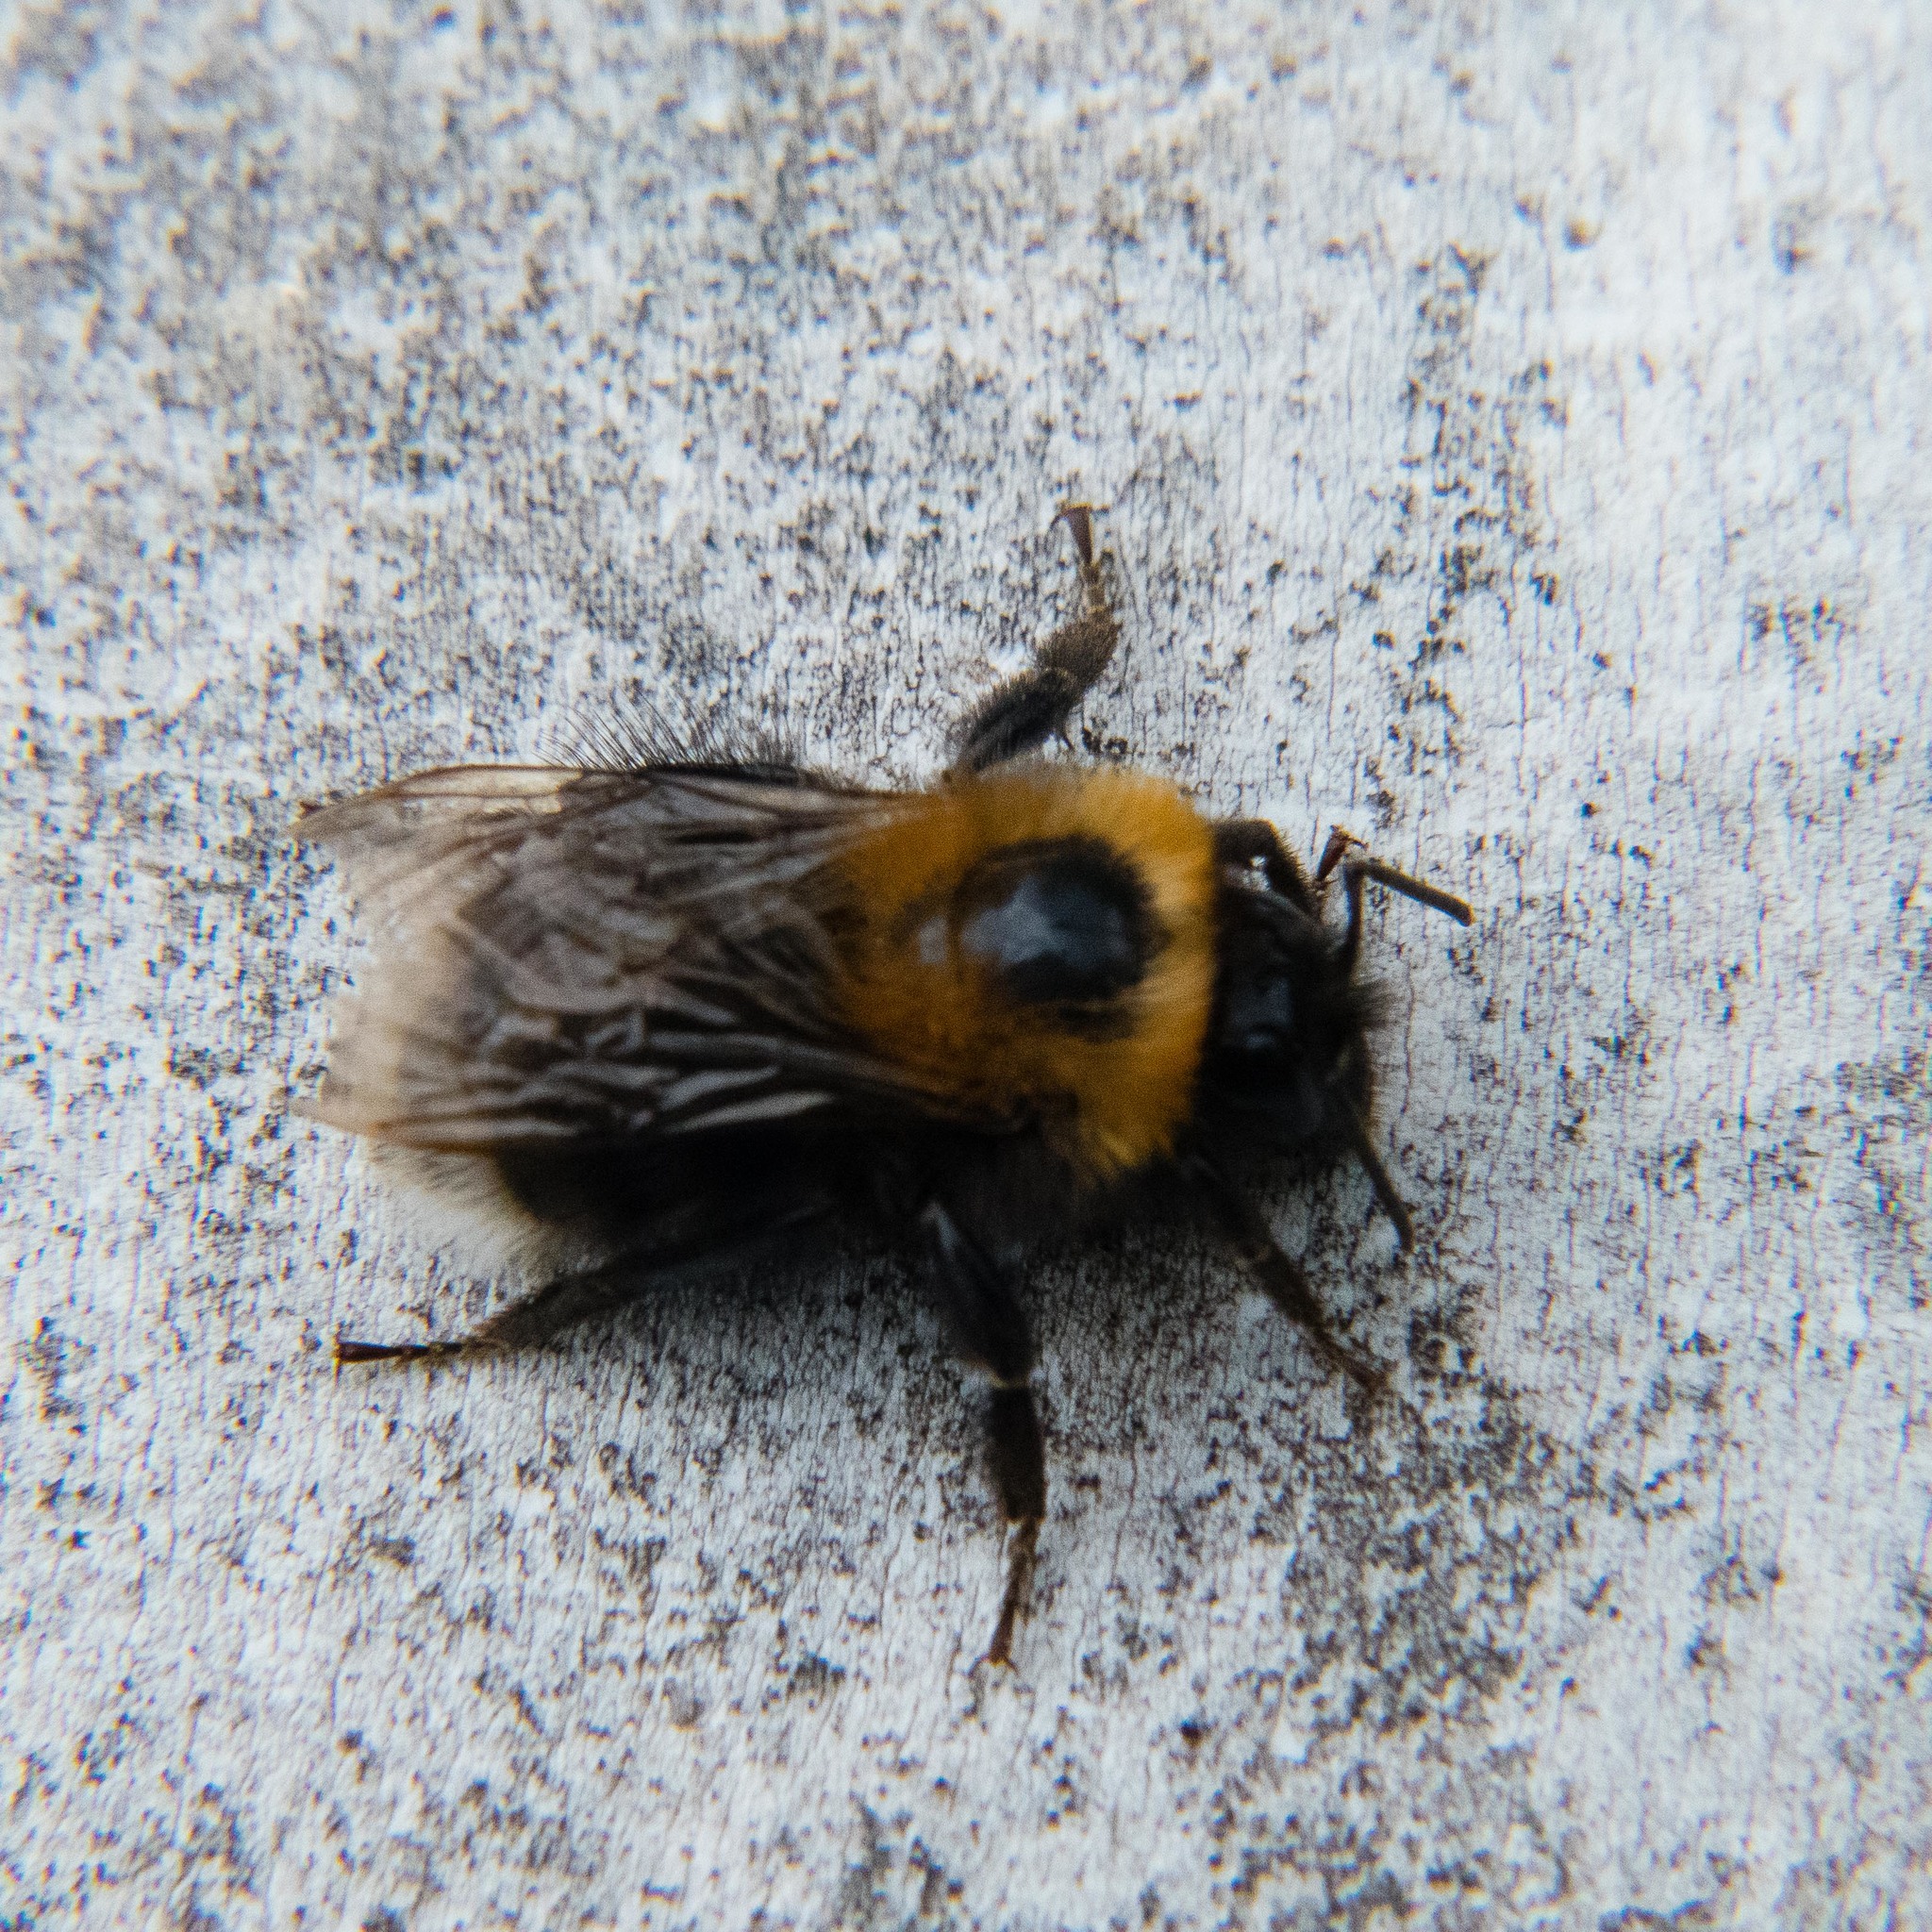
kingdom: Animalia
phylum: Arthropoda
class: Insecta
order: Hymenoptera
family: Apidae
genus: Bombus
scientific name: Bombus hypnorum
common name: New garden bumblebee
